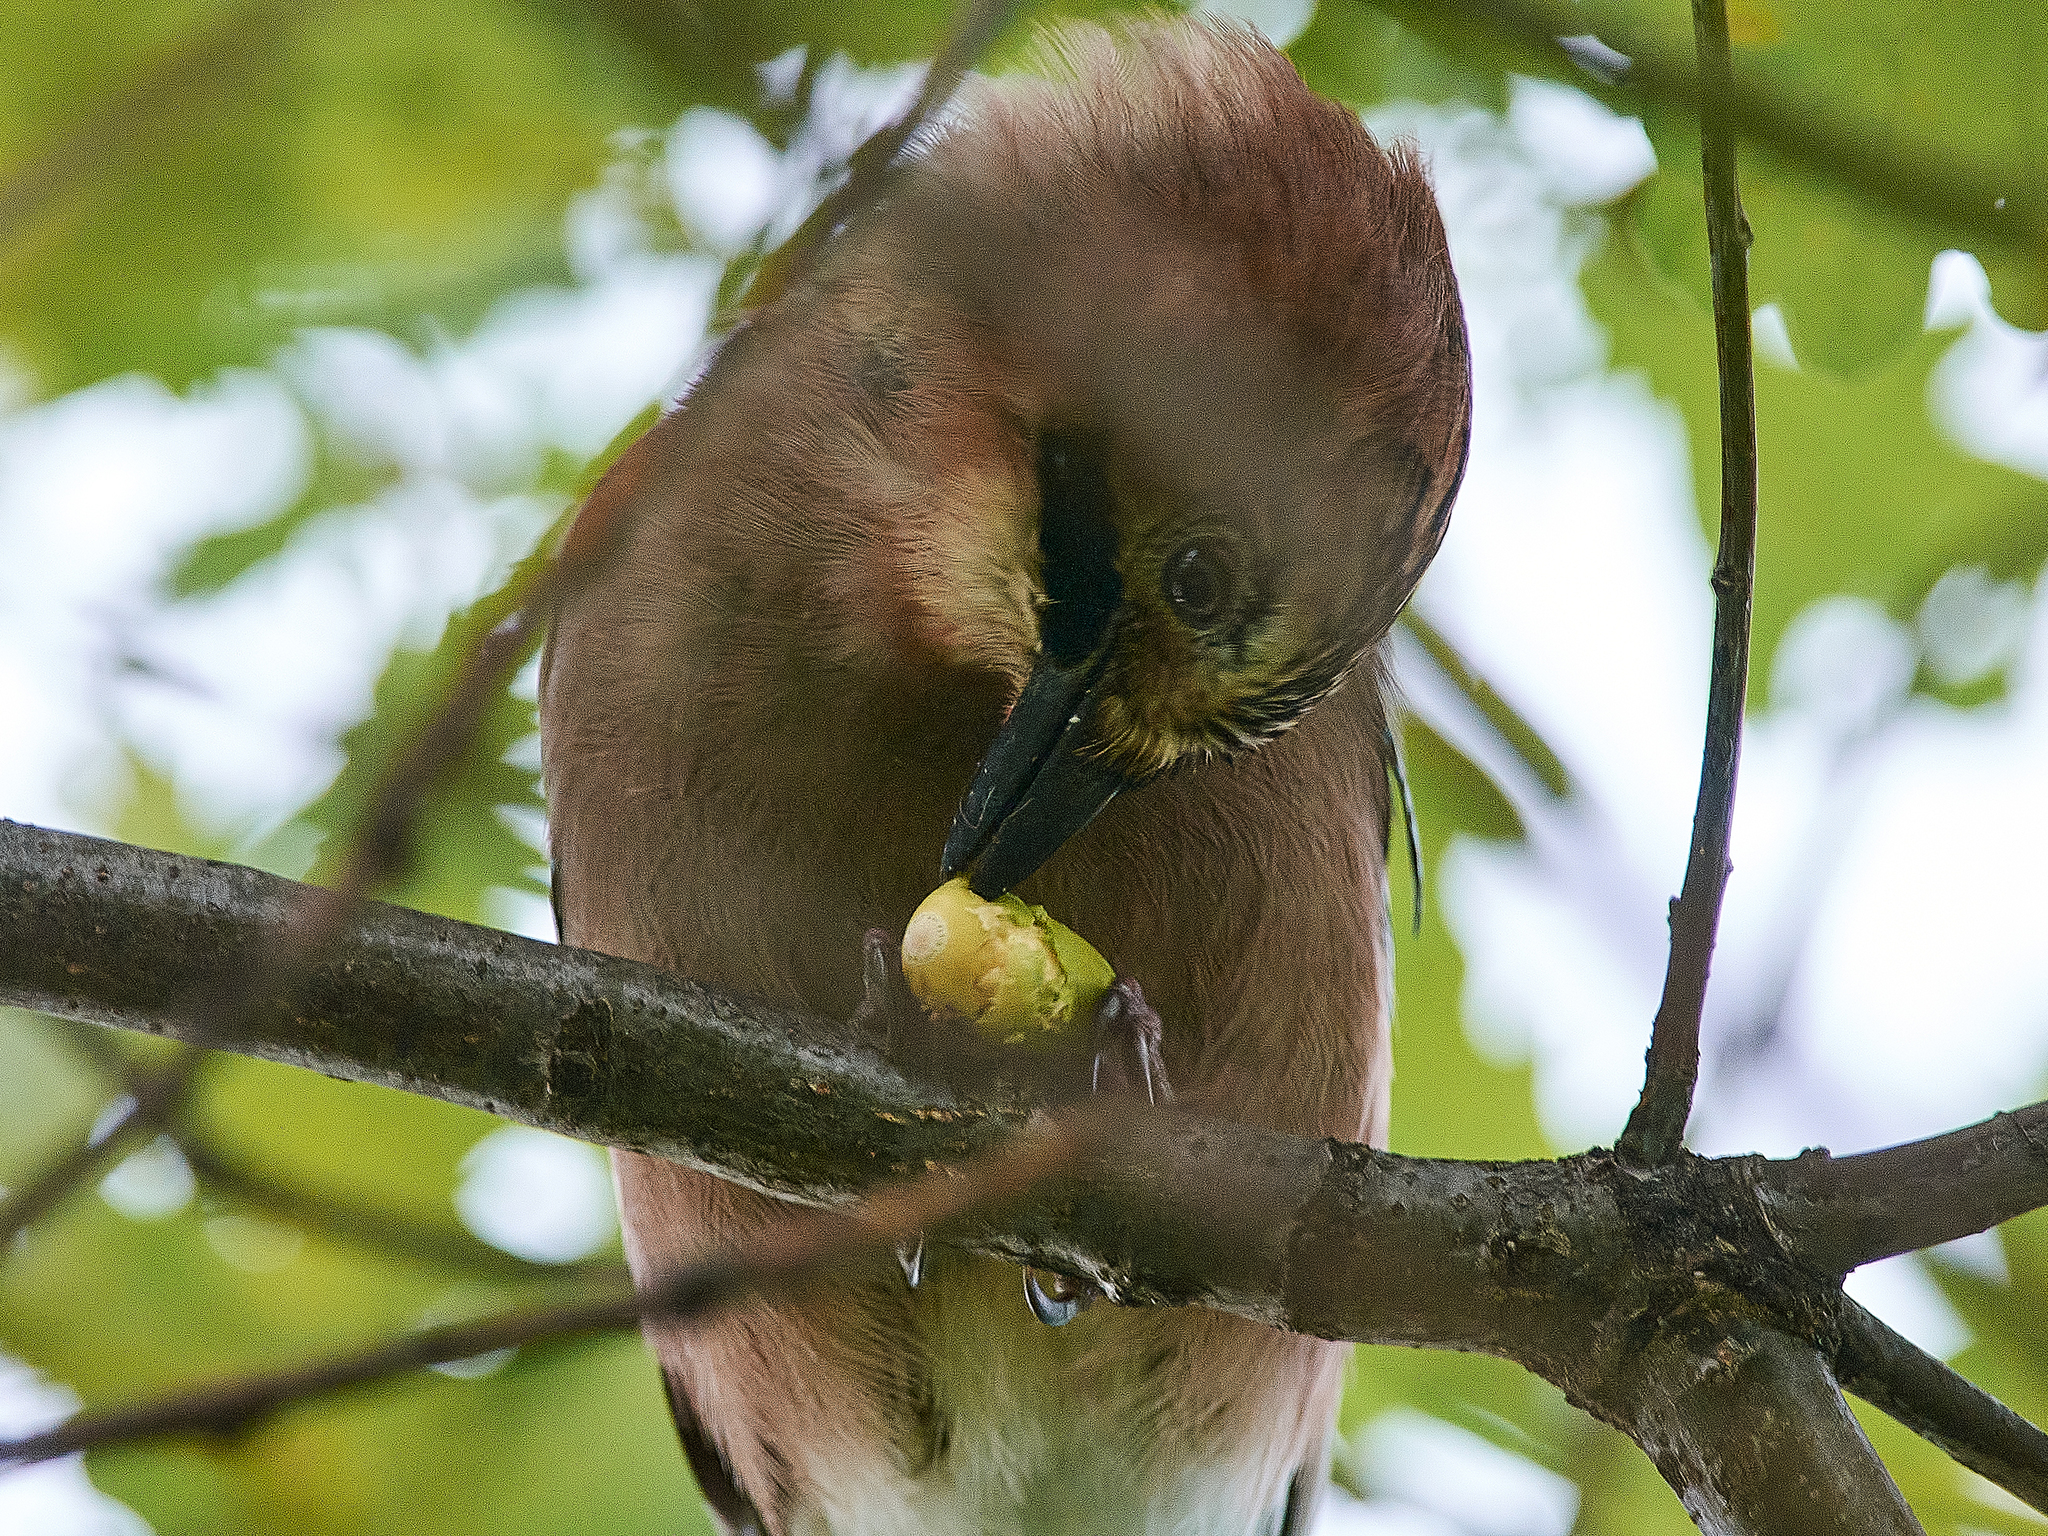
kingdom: Animalia
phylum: Chordata
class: Aves
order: Passeriformes
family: Corvidae
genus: Garrulus
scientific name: Garrulus glandarius
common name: Eurasian jay
